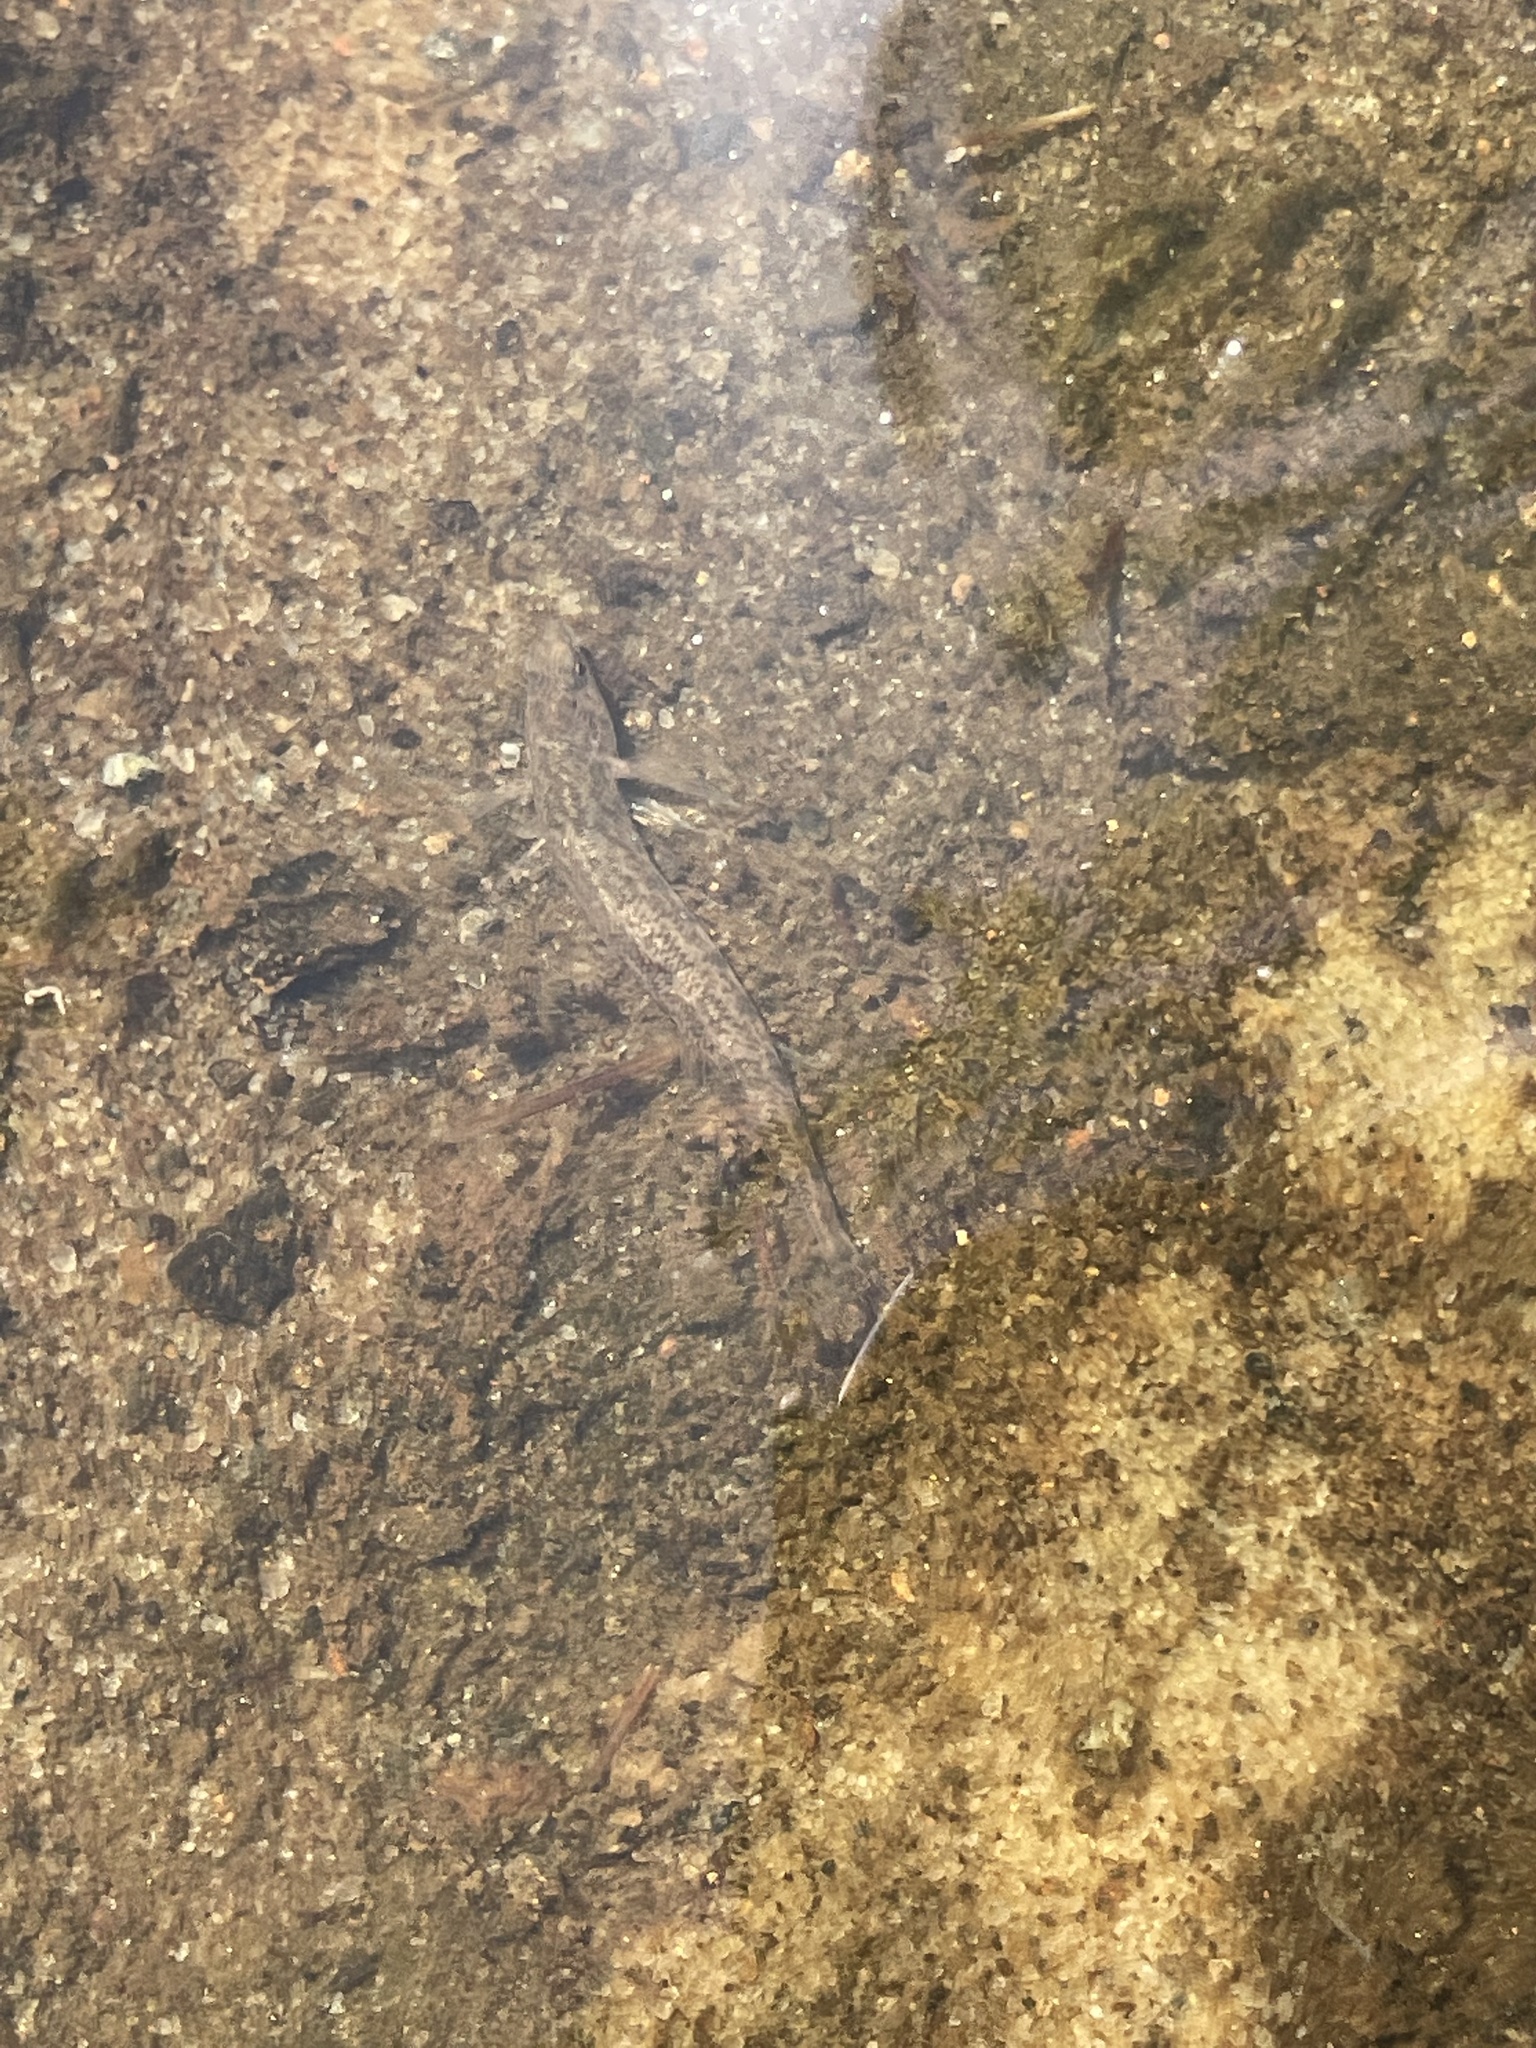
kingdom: Animalia
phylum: Chordata
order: Perciformes
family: Percidae
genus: Etheostoma
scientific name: Etheostoma scotti
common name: Cherokee darter
